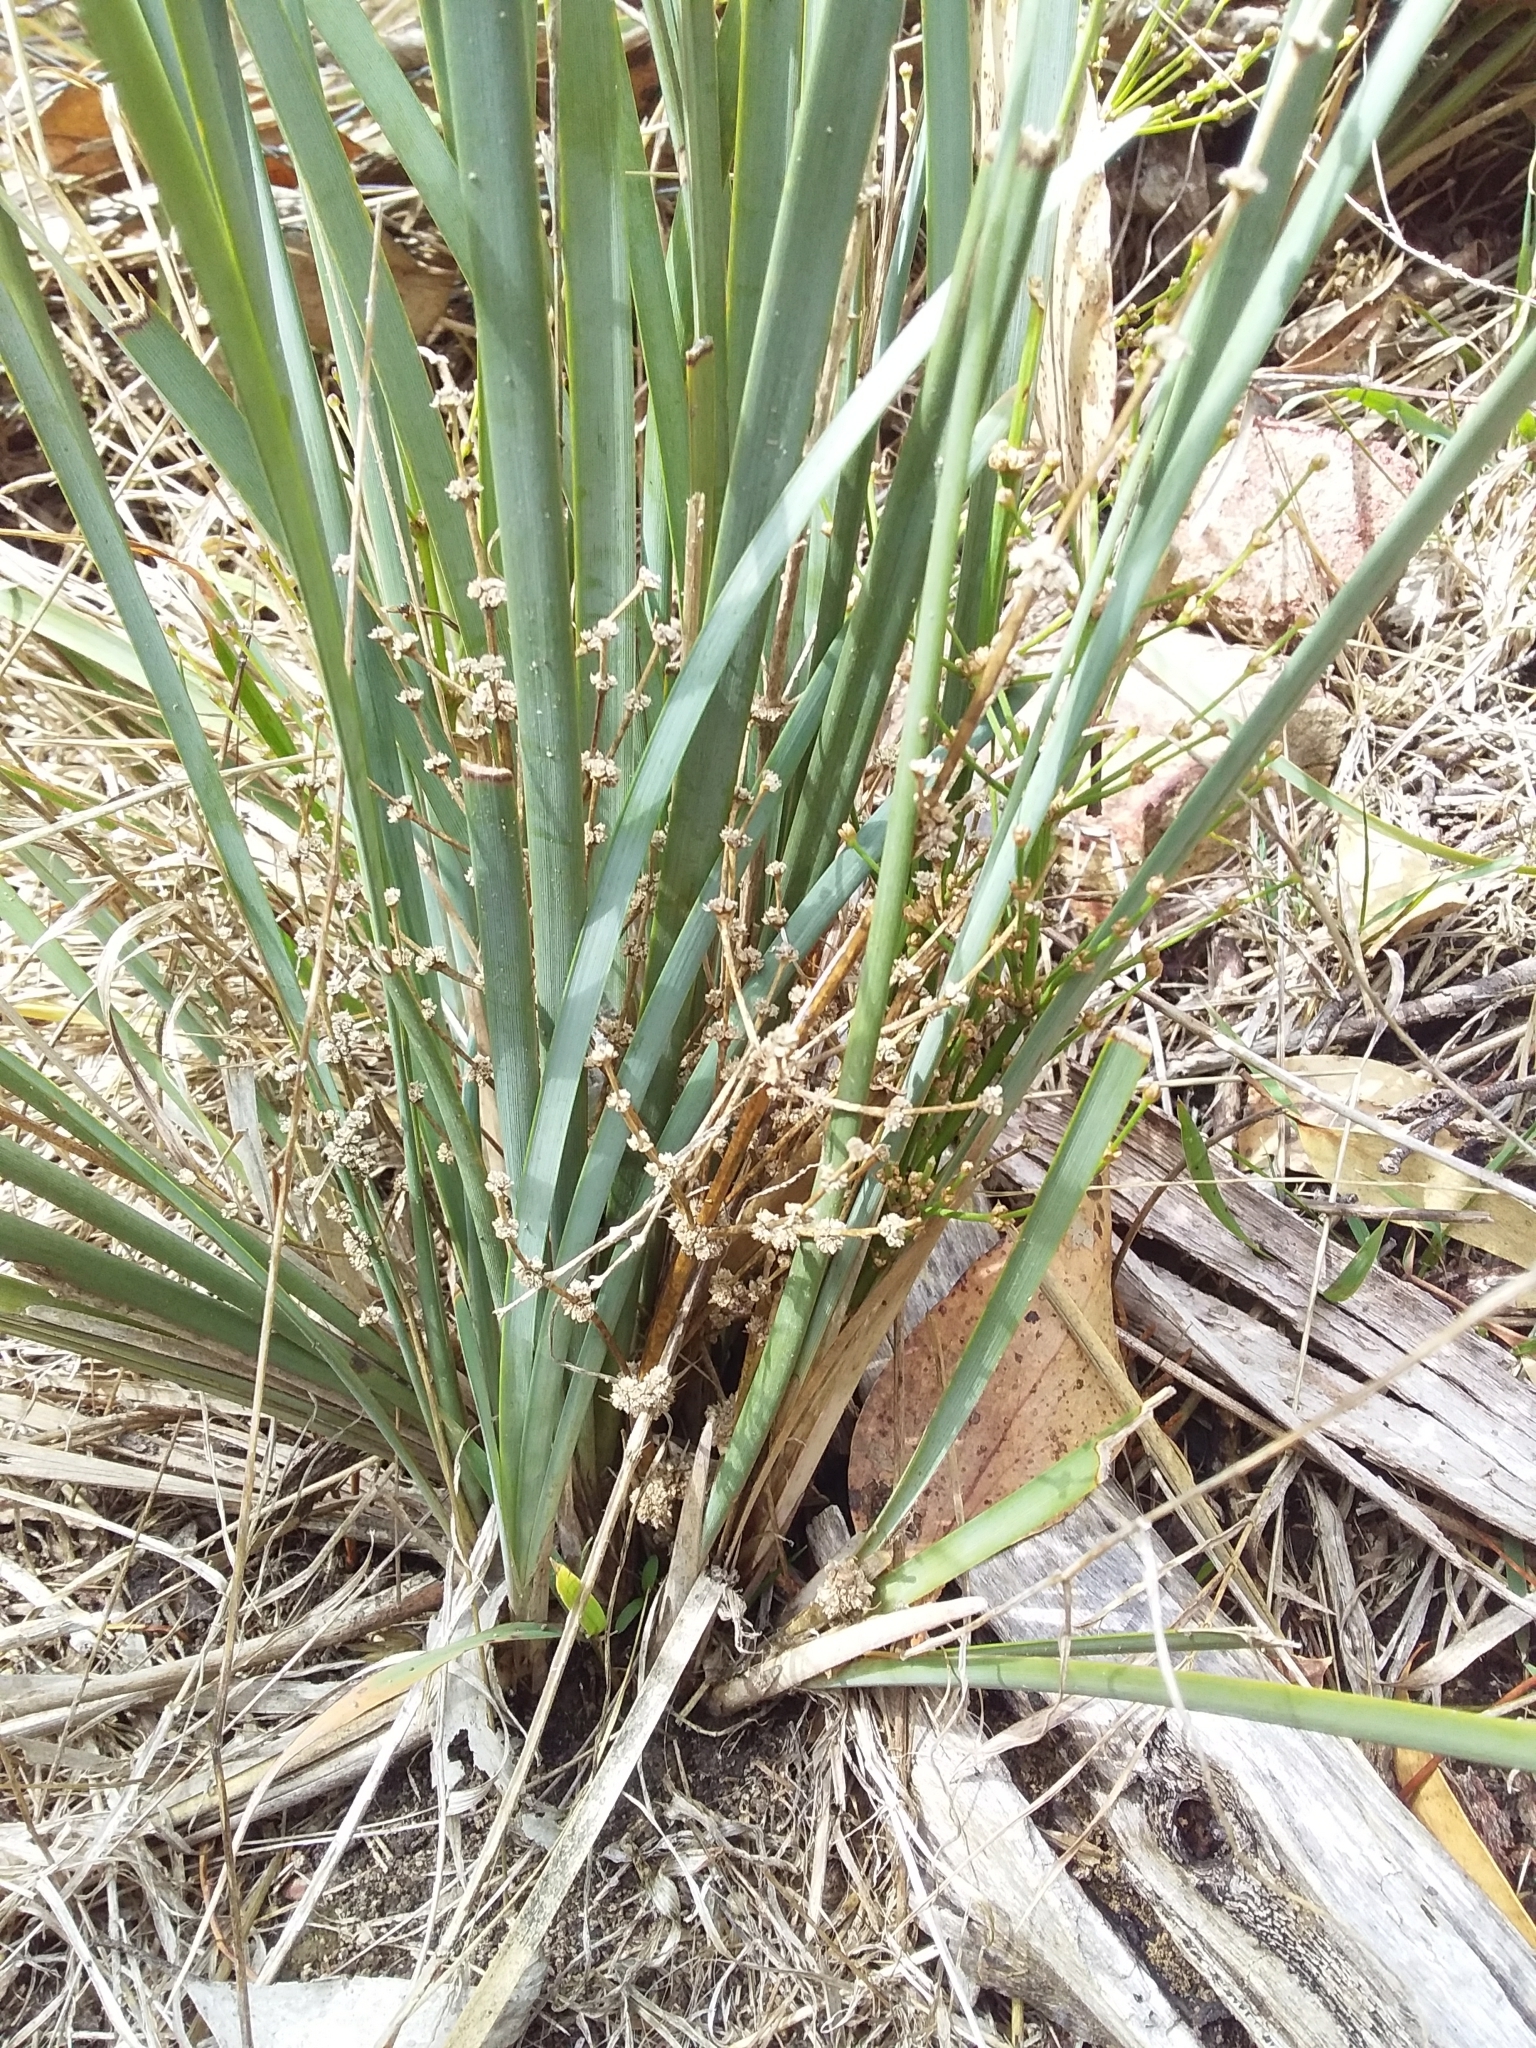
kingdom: Plantae
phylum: Tracheophyta
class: Liliopsida
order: Asparagales
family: Asparagaceae
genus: Lomandra
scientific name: Lomandra multiflora
